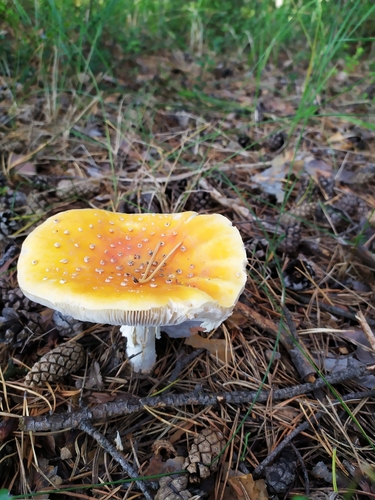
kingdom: Fungi
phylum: Basidiomycota
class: Agaricomycetes
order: Agaricales
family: Amanitaceae
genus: Amanita
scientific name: Amanita muscaria
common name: Fly agaric
